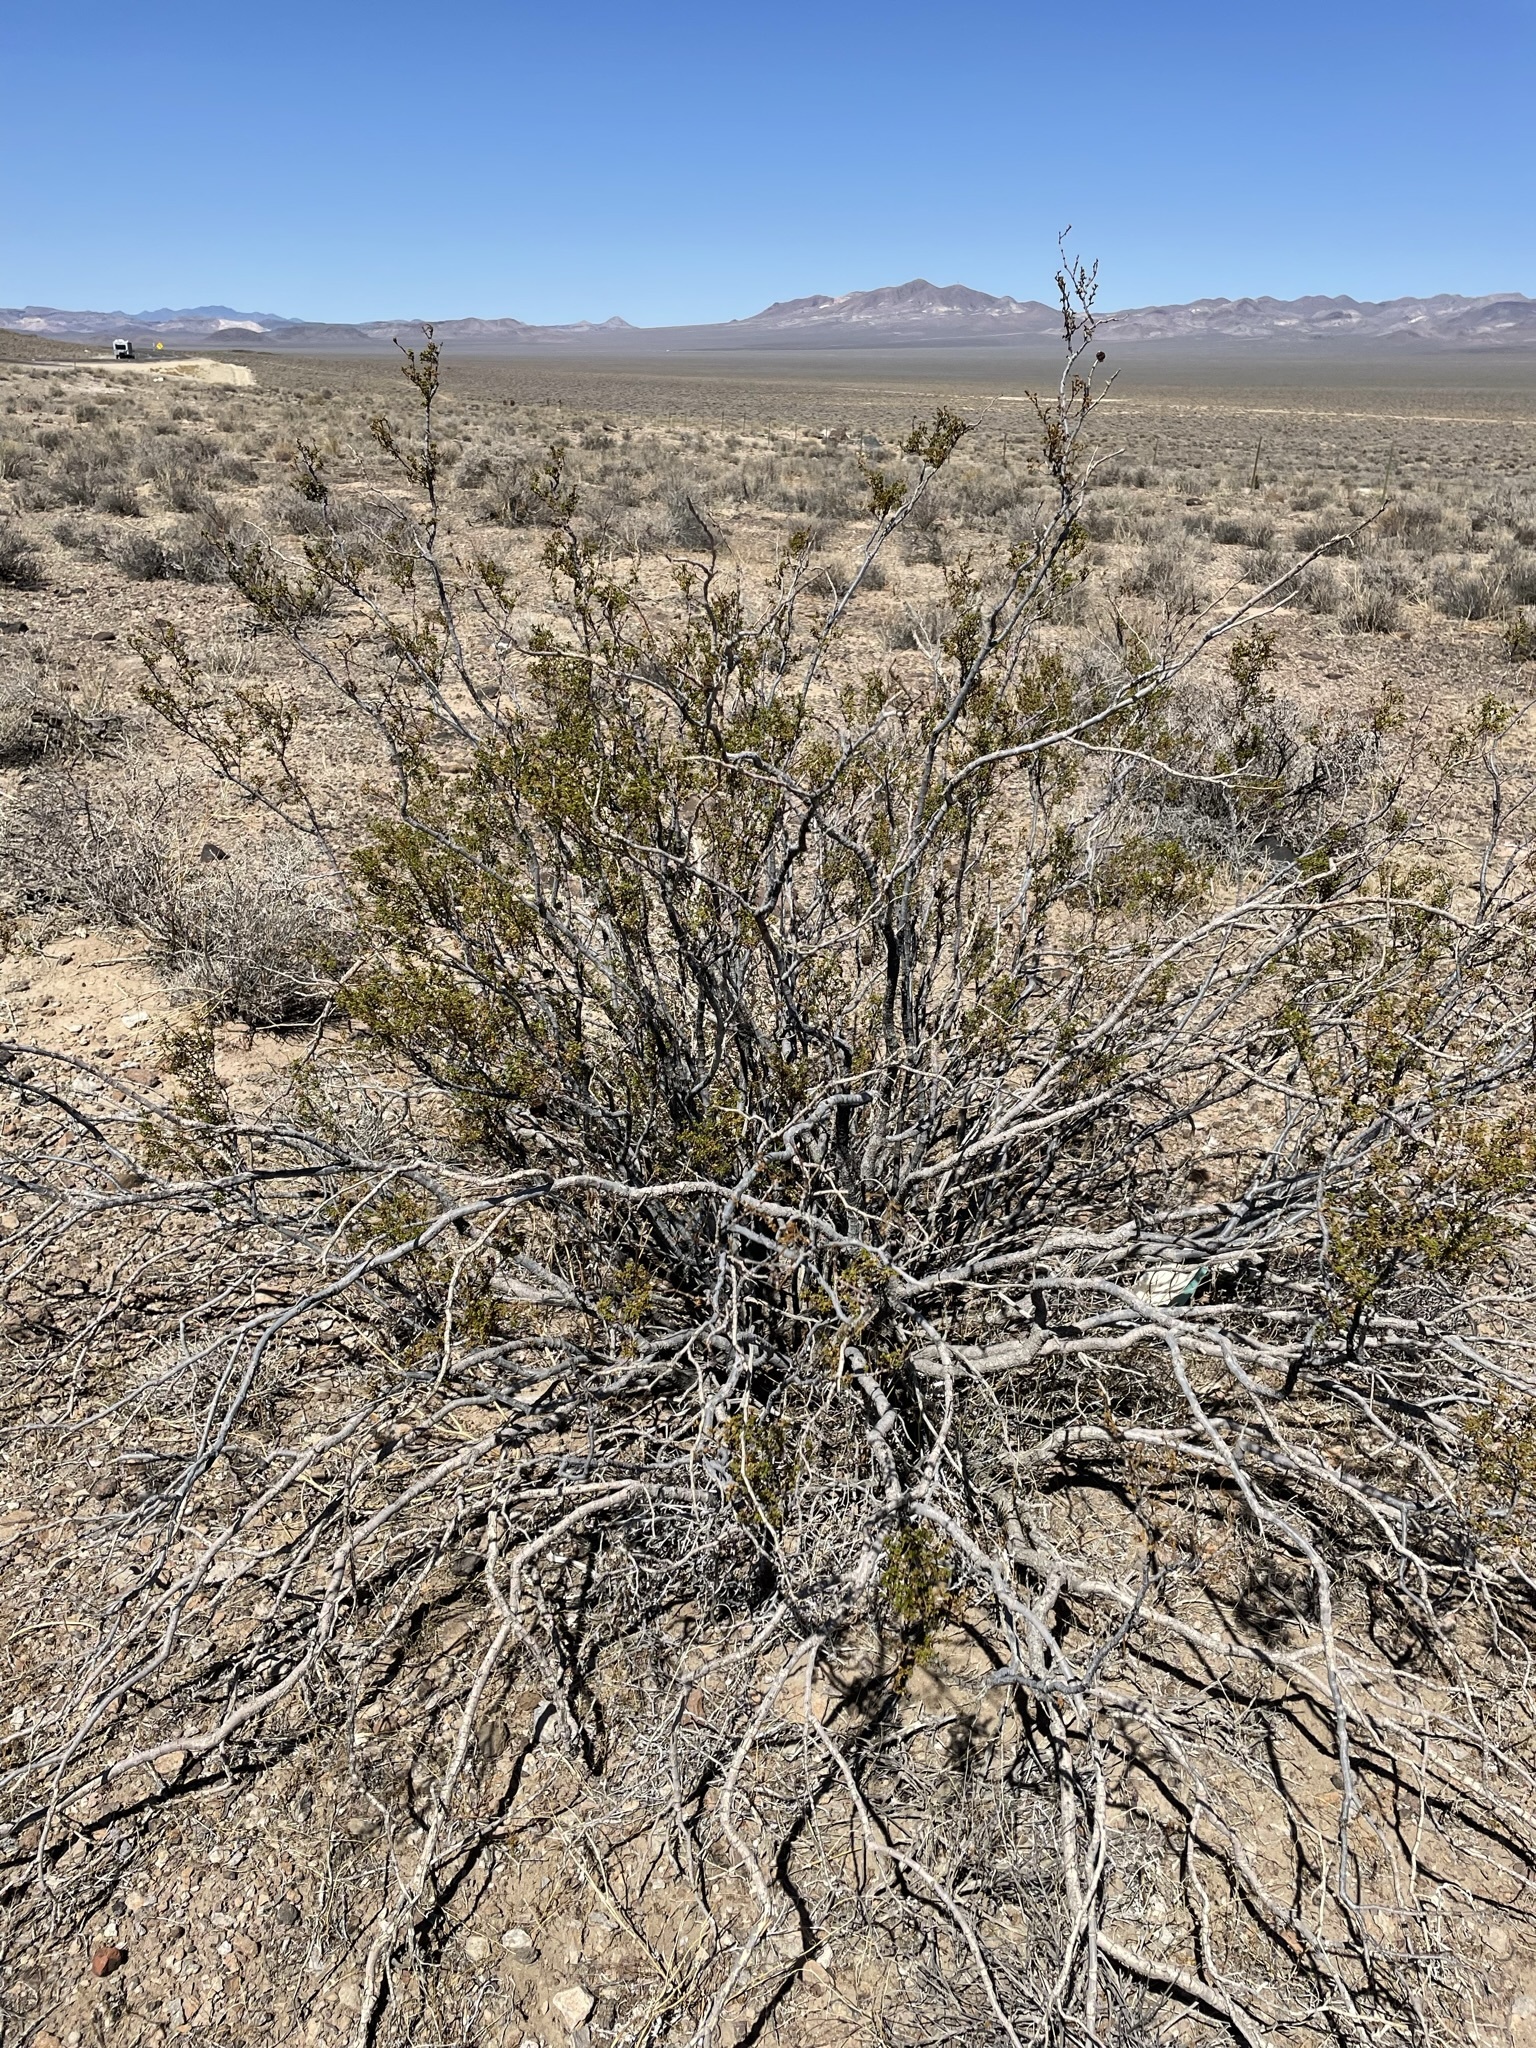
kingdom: Plantae
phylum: Tracheophyta
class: Magnoliopsida
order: Zygophyllales
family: Zygophyllaceae
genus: Larrea
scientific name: Larrea tridentata
